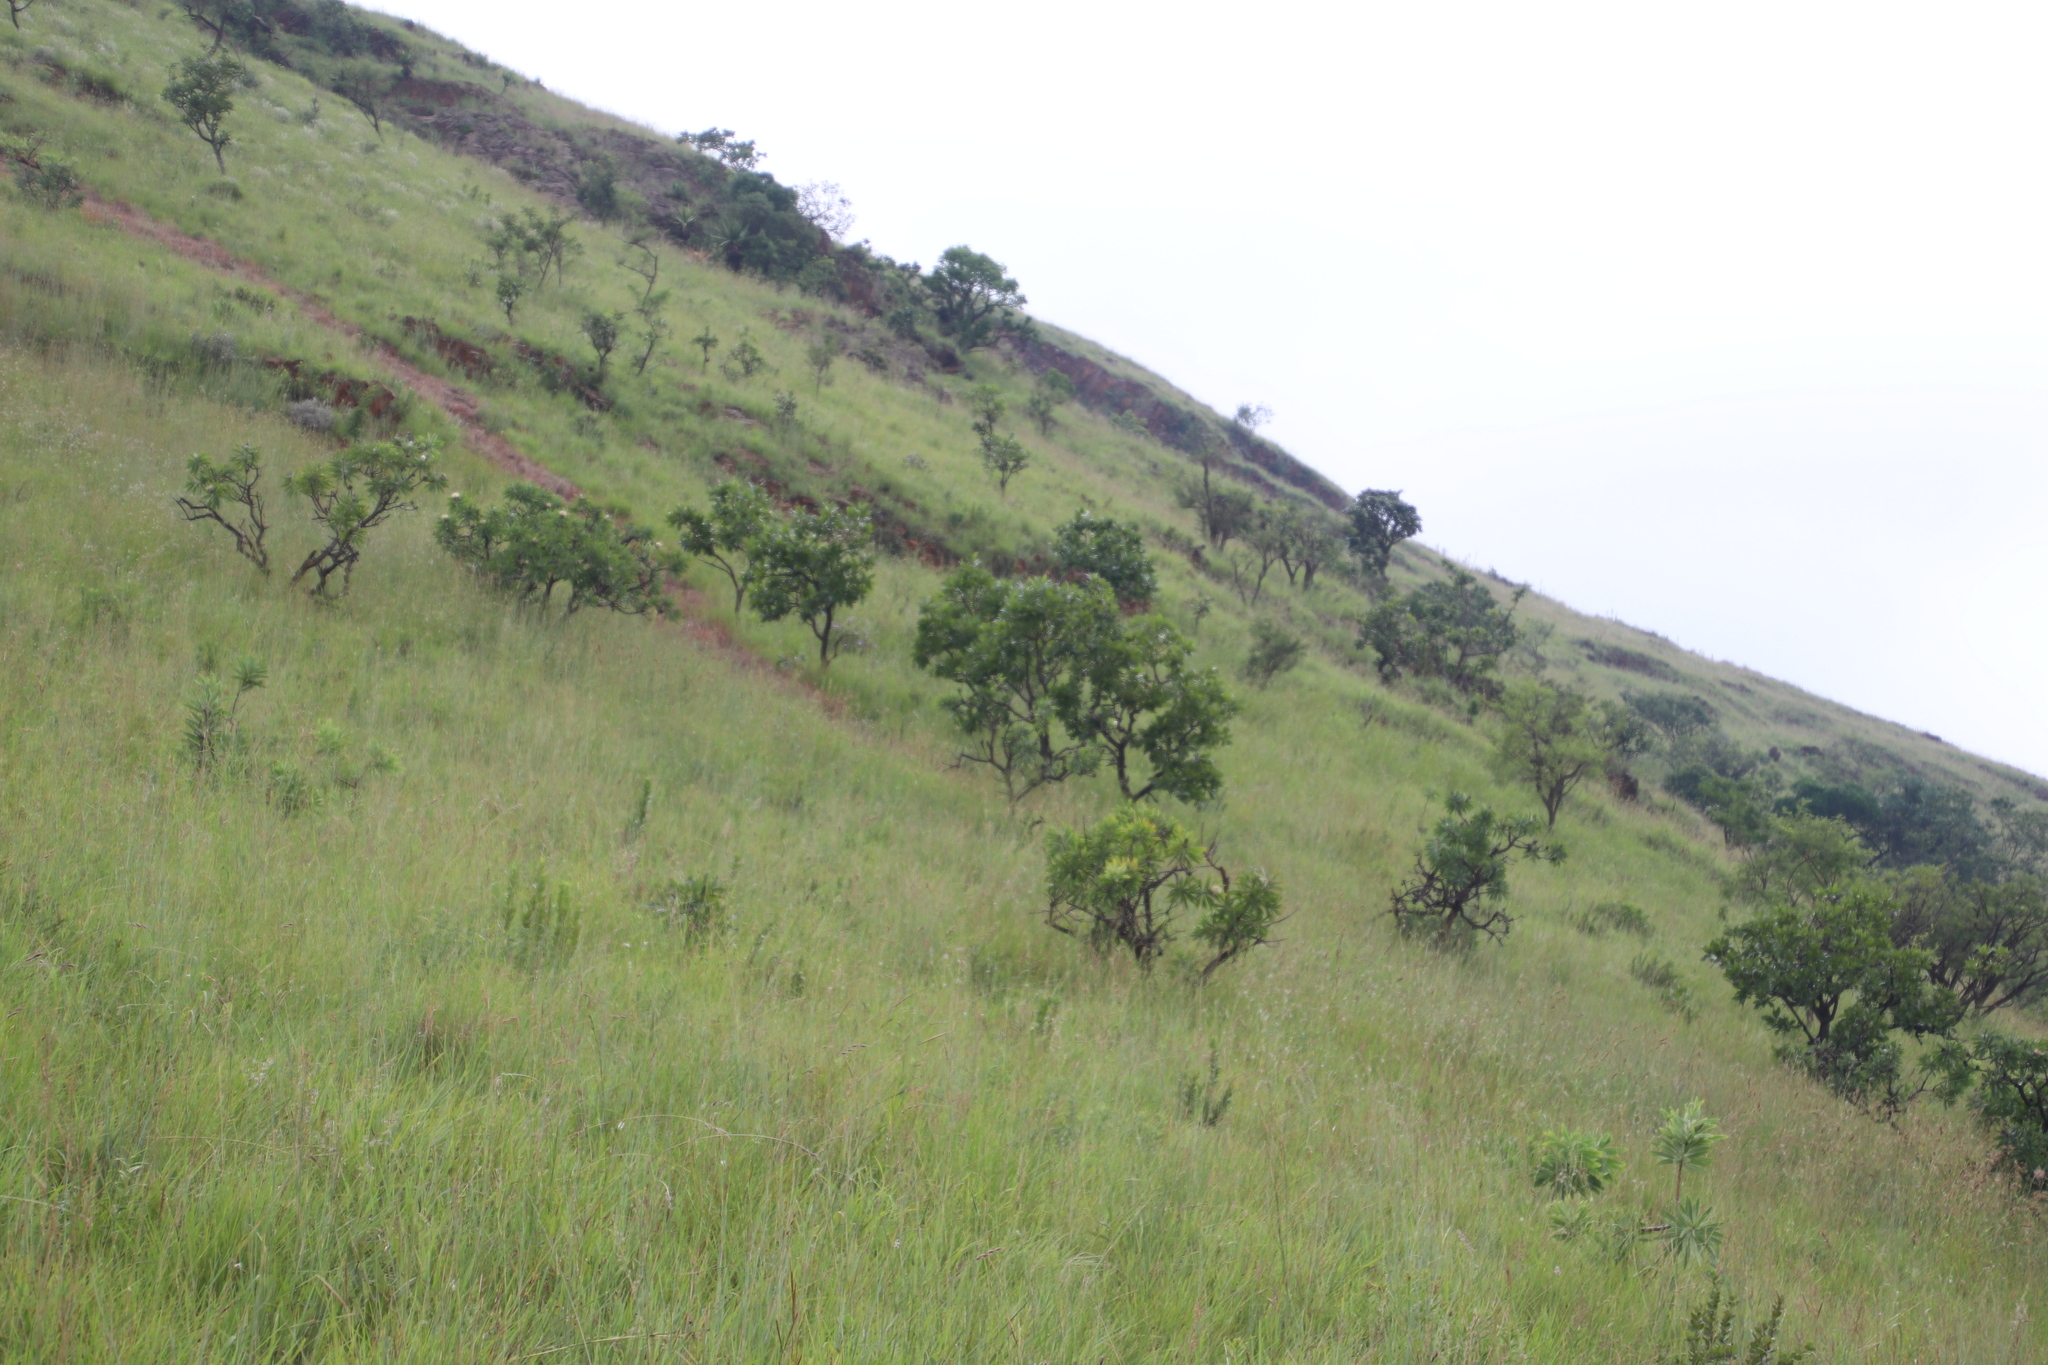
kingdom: Plantae
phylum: Tracheophyta
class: Magnoliopsida
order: Proteales
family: Proteaceae
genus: Protea
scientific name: Protea gaguedi
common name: African protea
